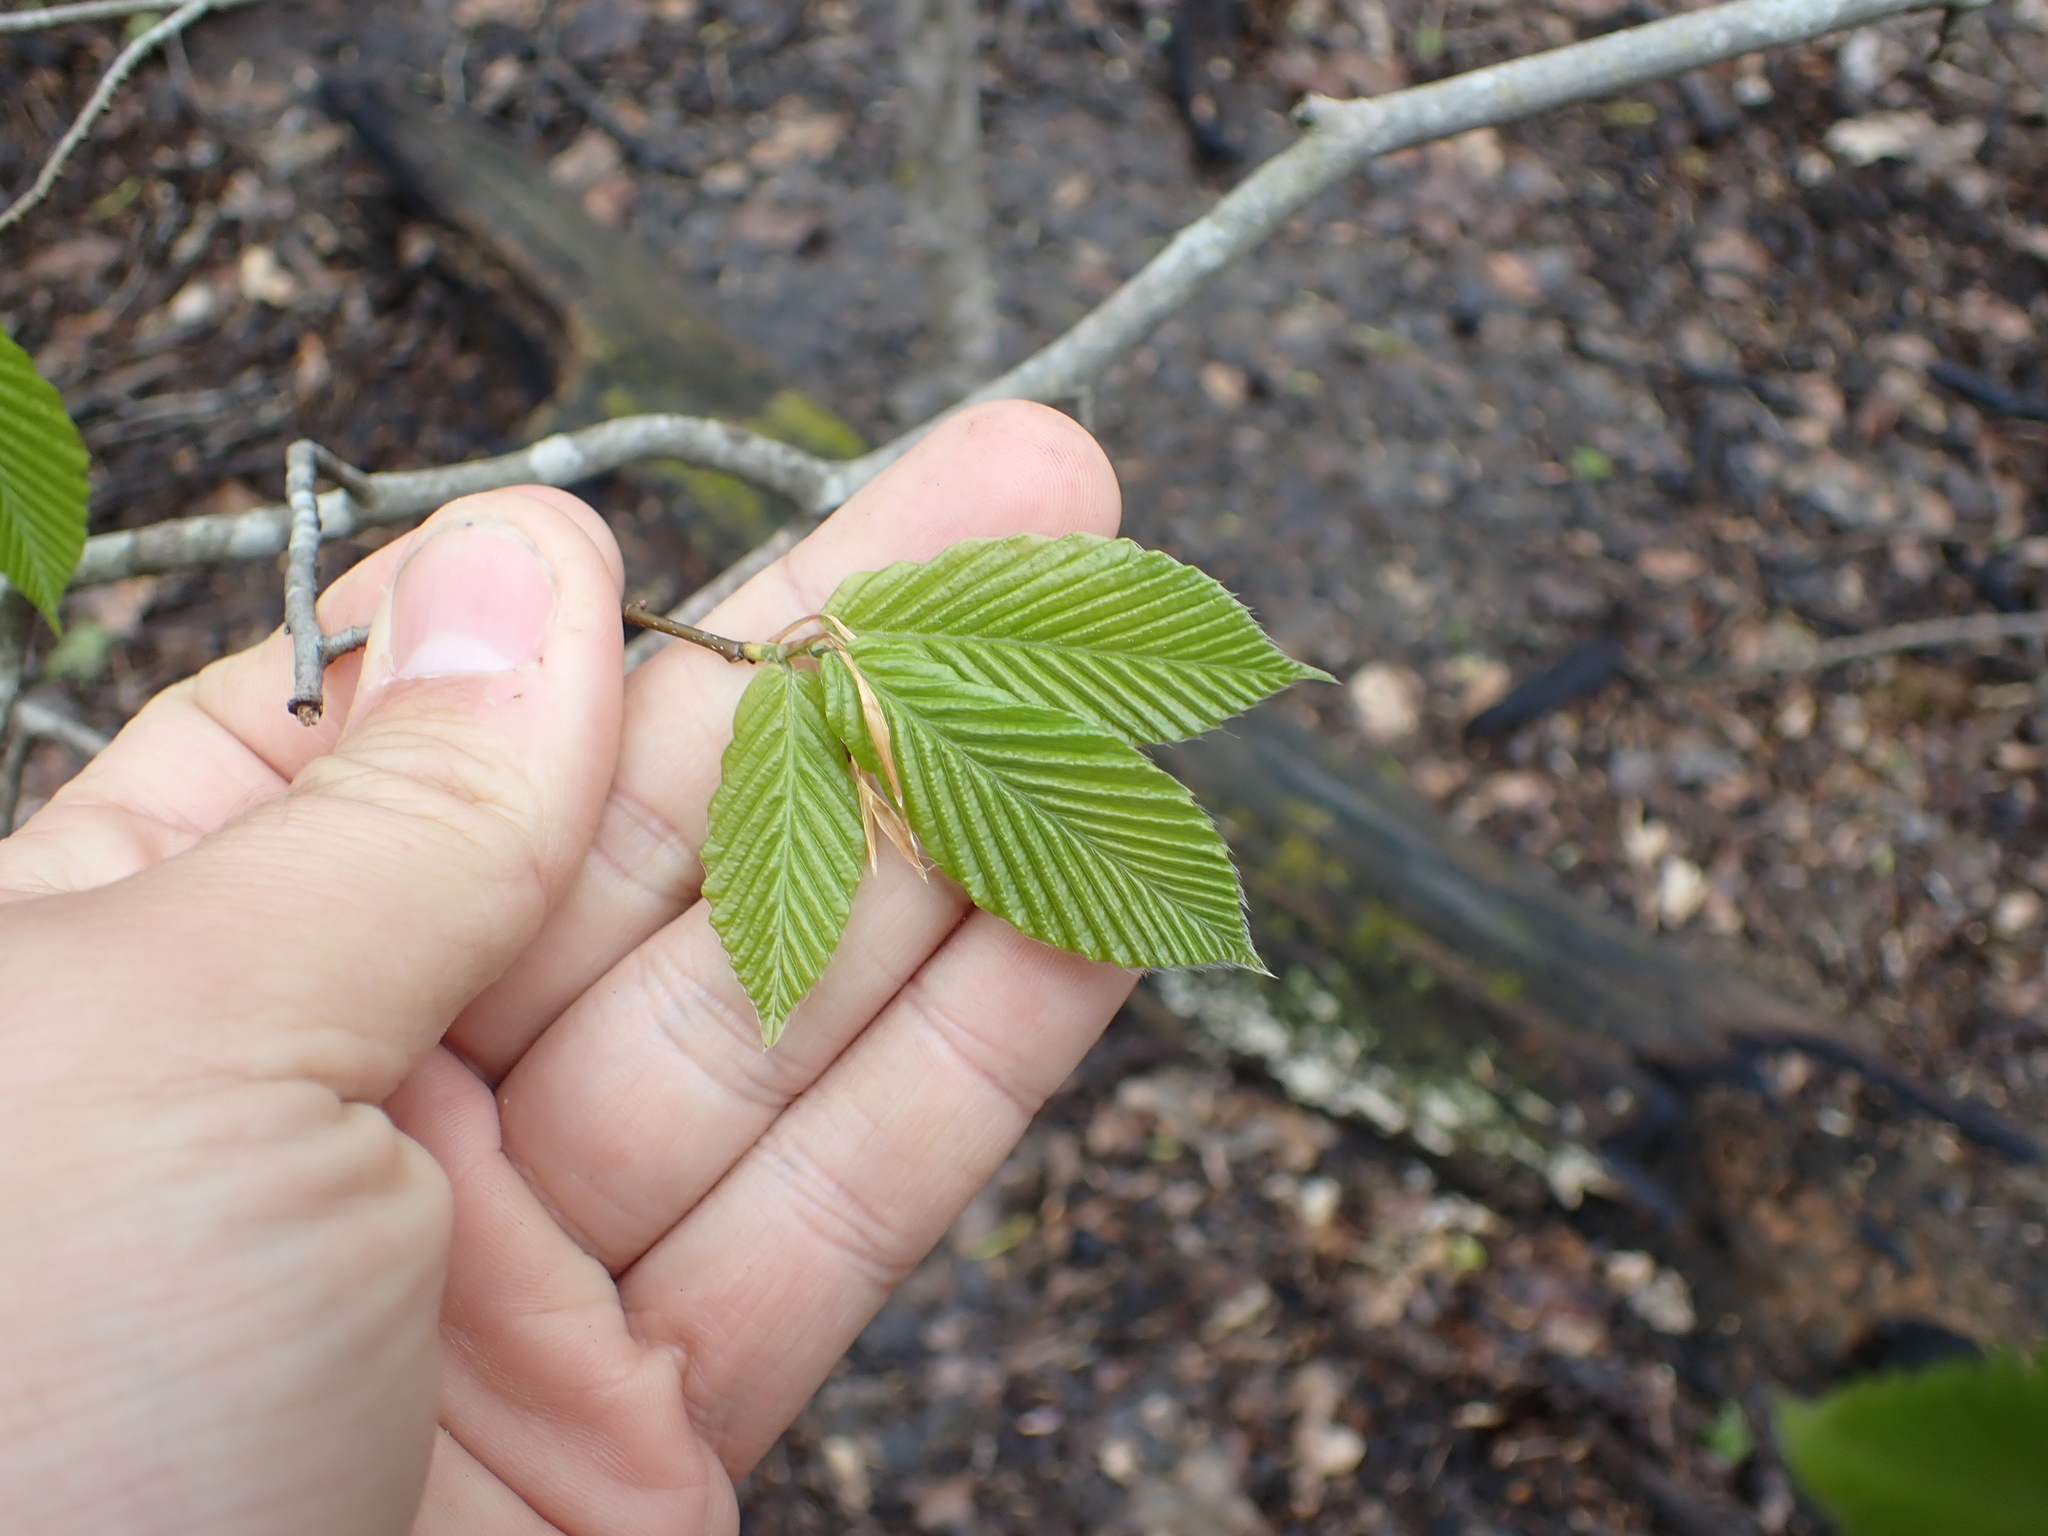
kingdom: Plantae
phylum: Tracheophyta
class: Magnoliopsida
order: Fagales
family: Fagaceae
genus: Fagus
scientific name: Fagus grandifolia
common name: American beech
